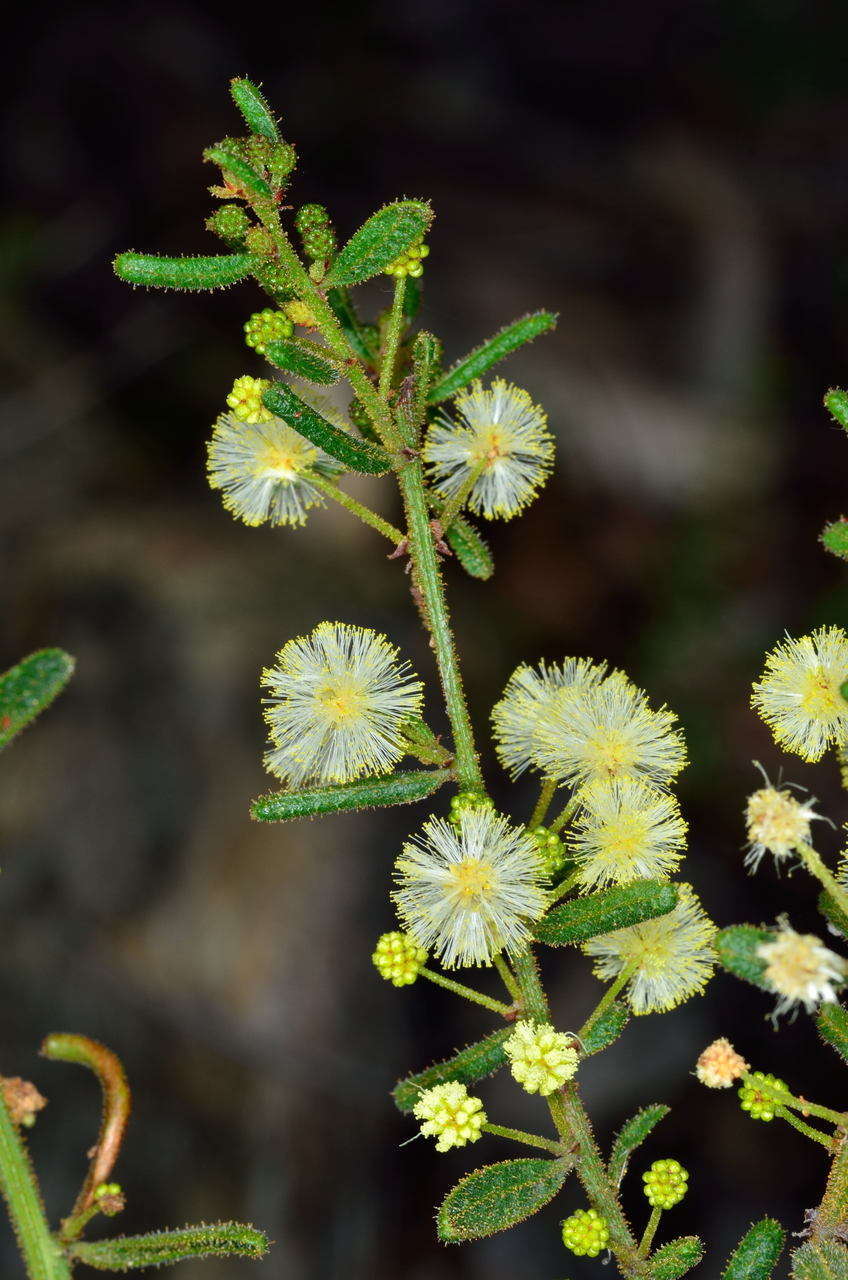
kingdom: Plantae
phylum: Tracheophyta
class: Magnoliopsida
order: Fabales
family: Fabaceae
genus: Acacia
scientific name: Acacia aspera
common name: Rough wattle
